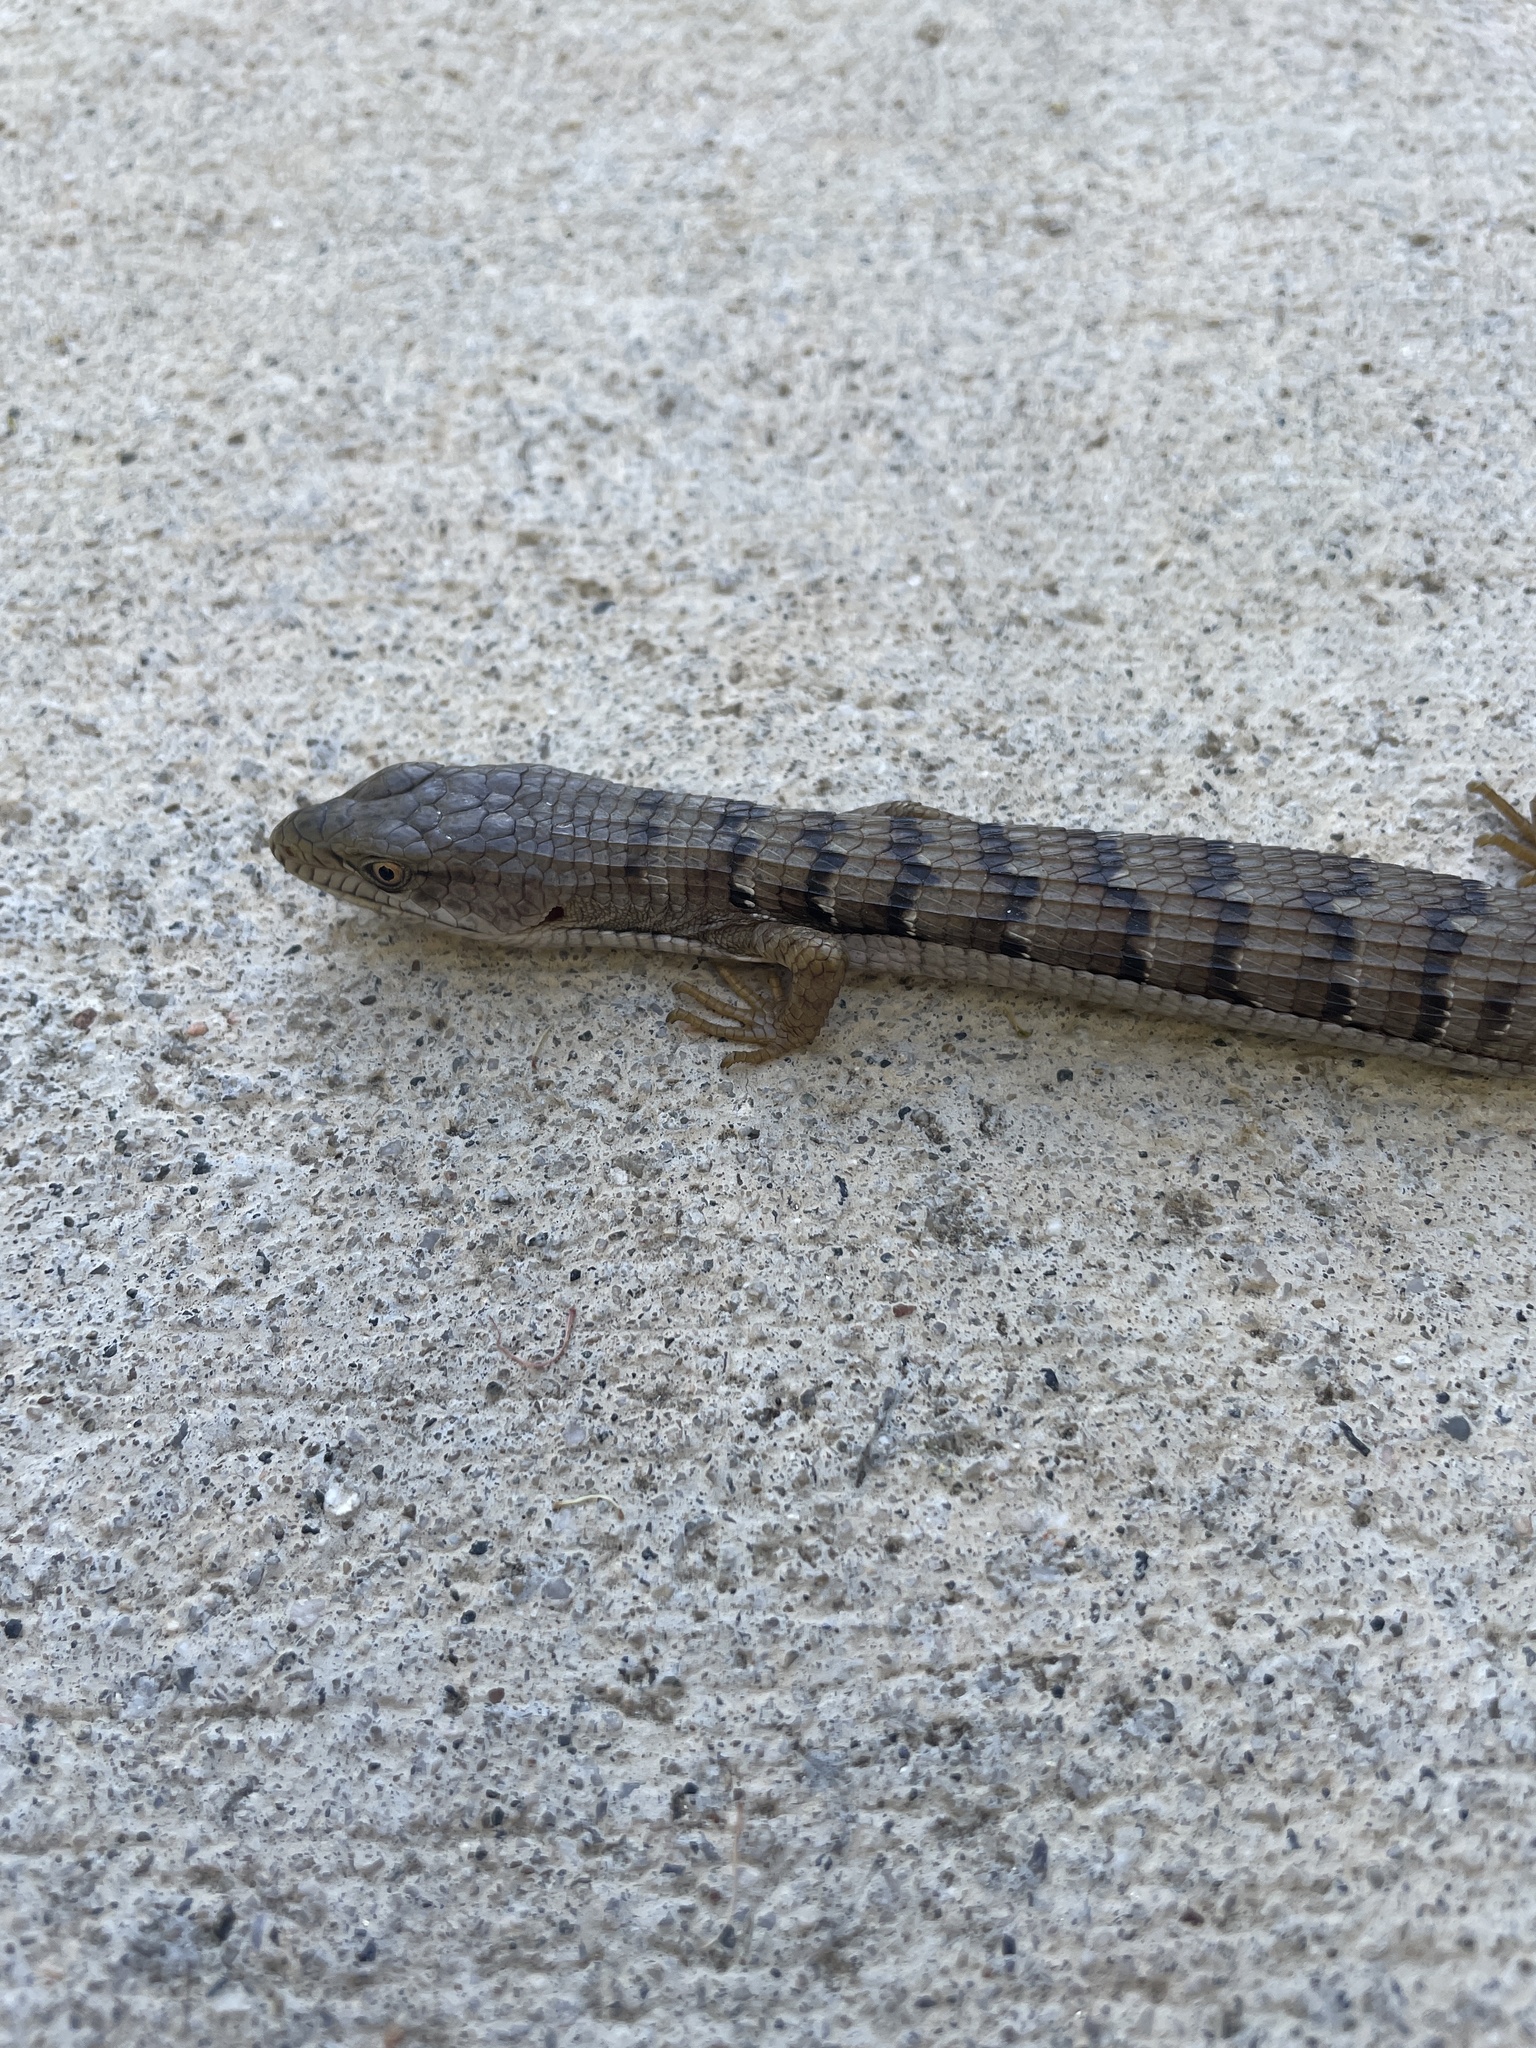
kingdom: Animalia
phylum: Chordata
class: Squamata
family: Anguidae
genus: Elgaria
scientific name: Elgaria multicarinata
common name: Southern alligator lizard
